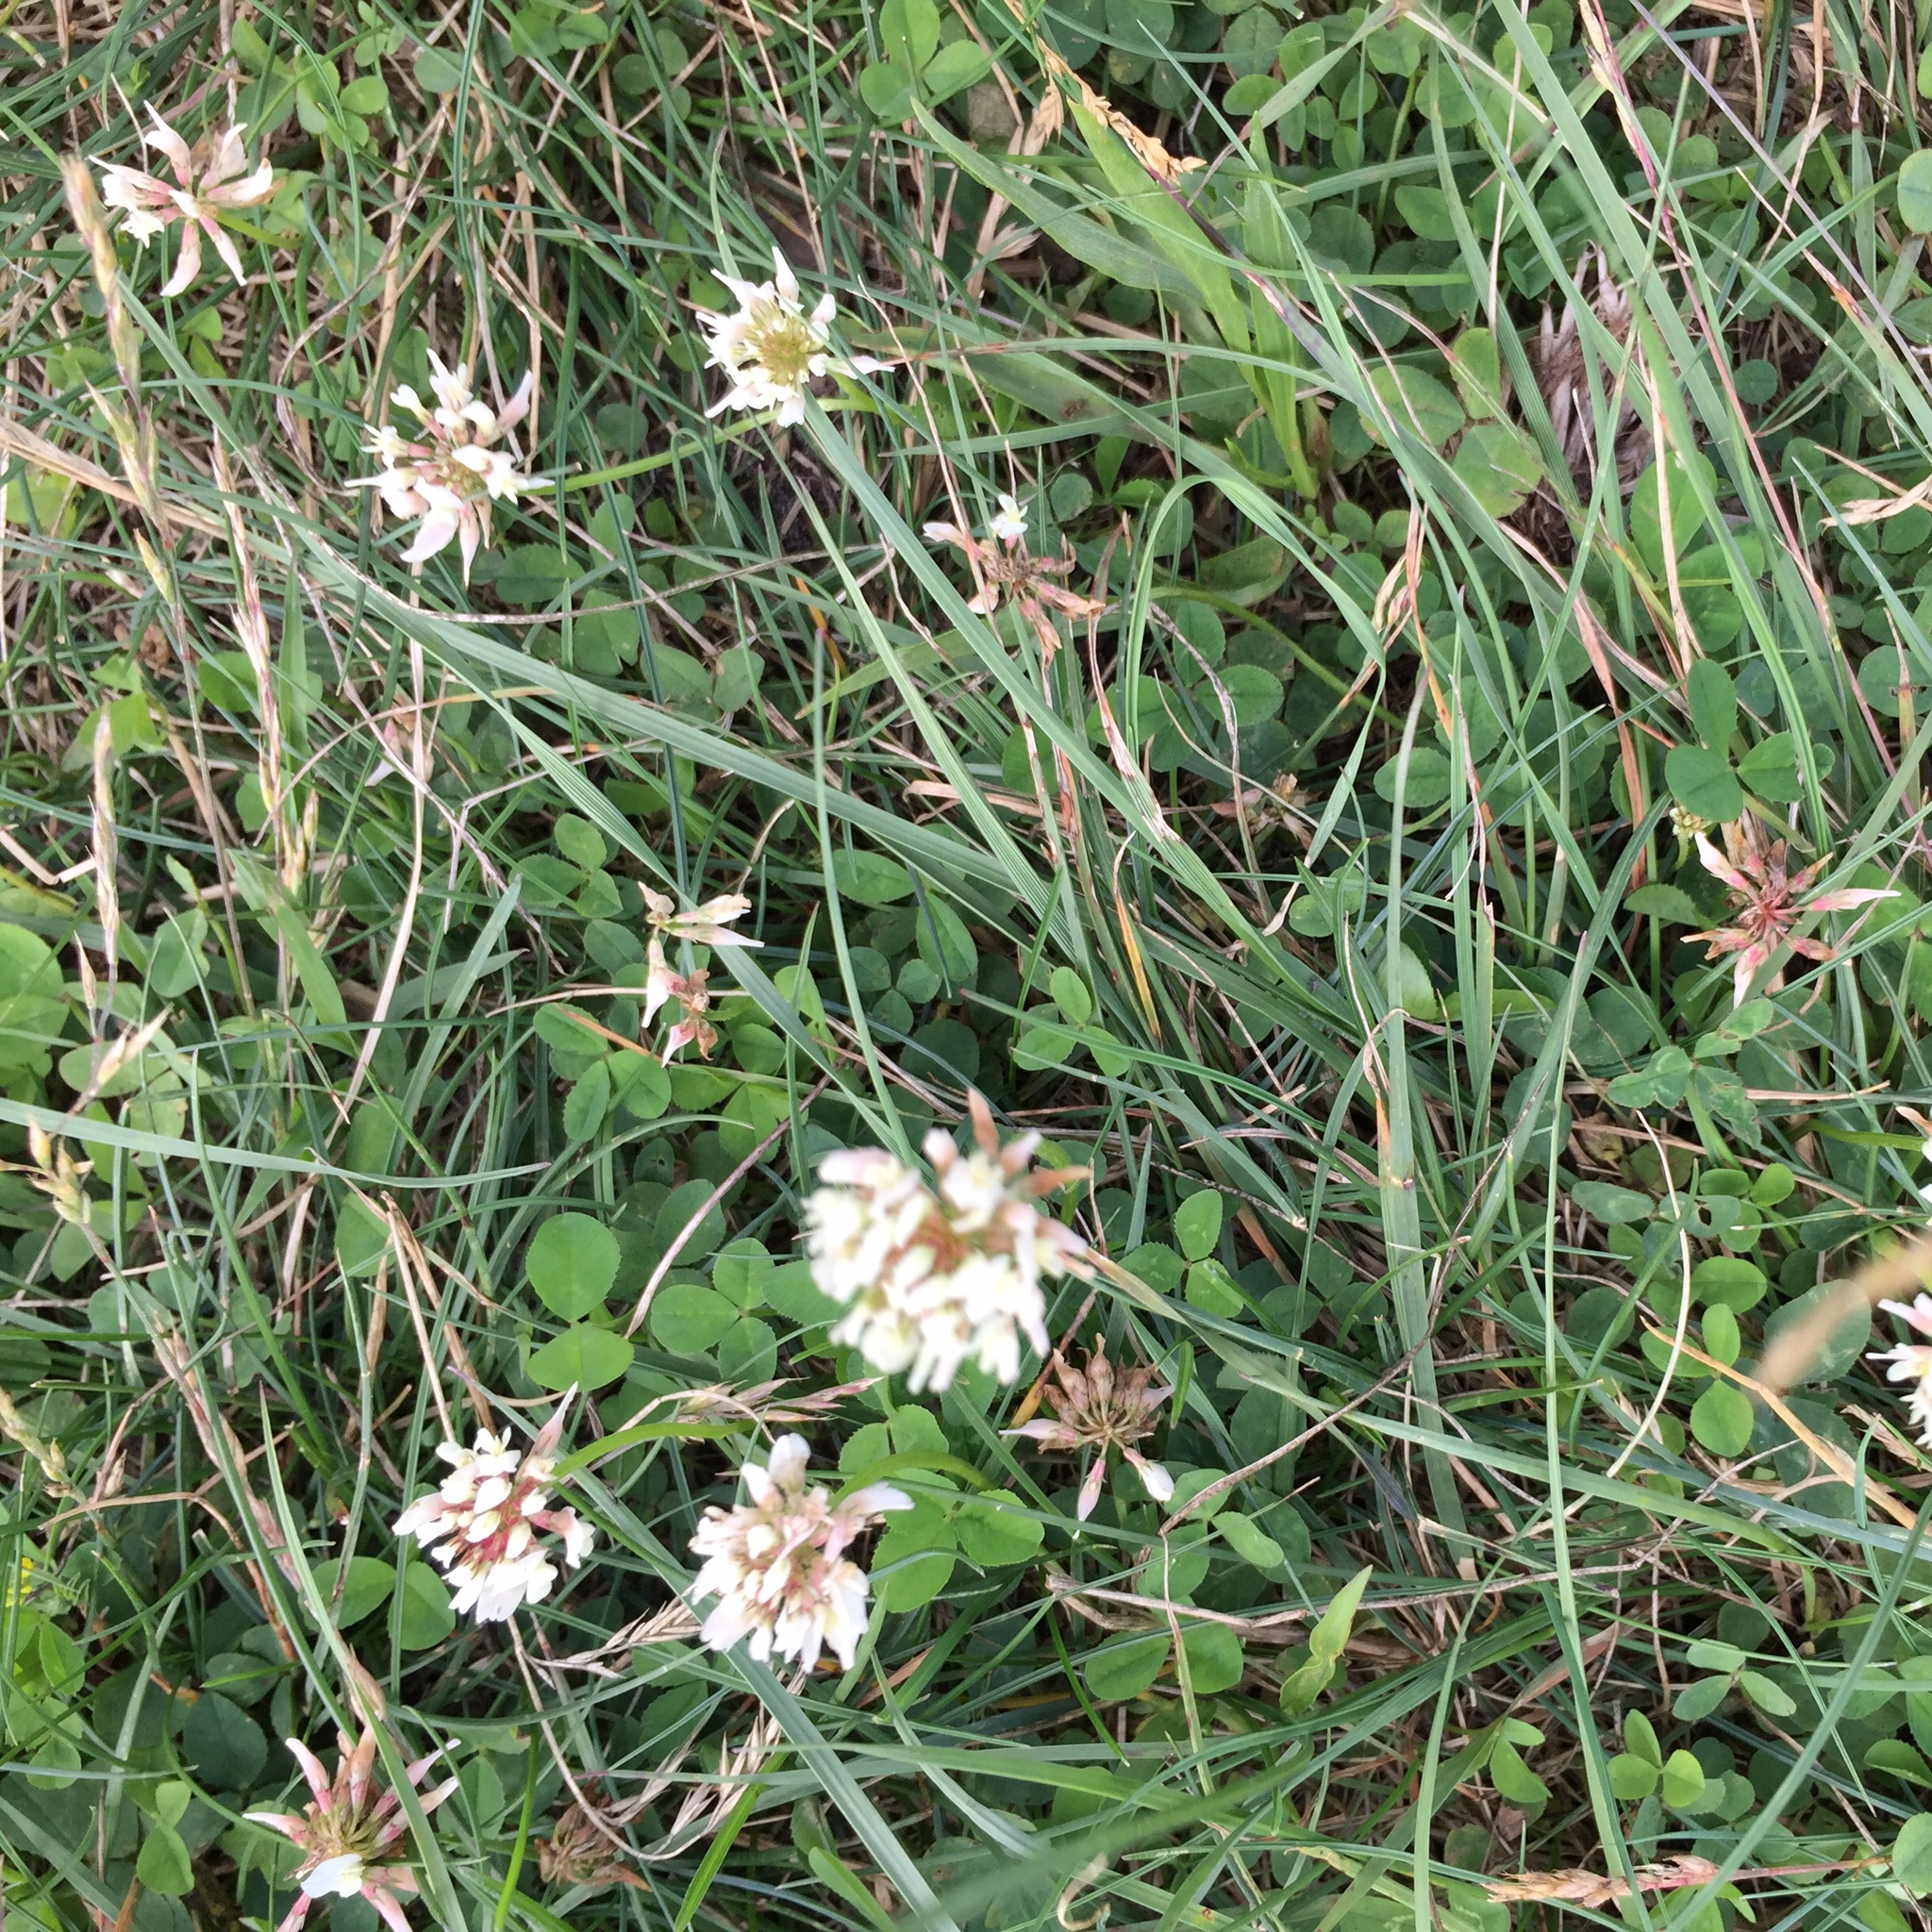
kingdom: Plantae
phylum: Tracheophyta
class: Magnoliopsida
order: Fabales
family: Fabaceae
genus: Trifolium
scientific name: Trifolium repens
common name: White clover
